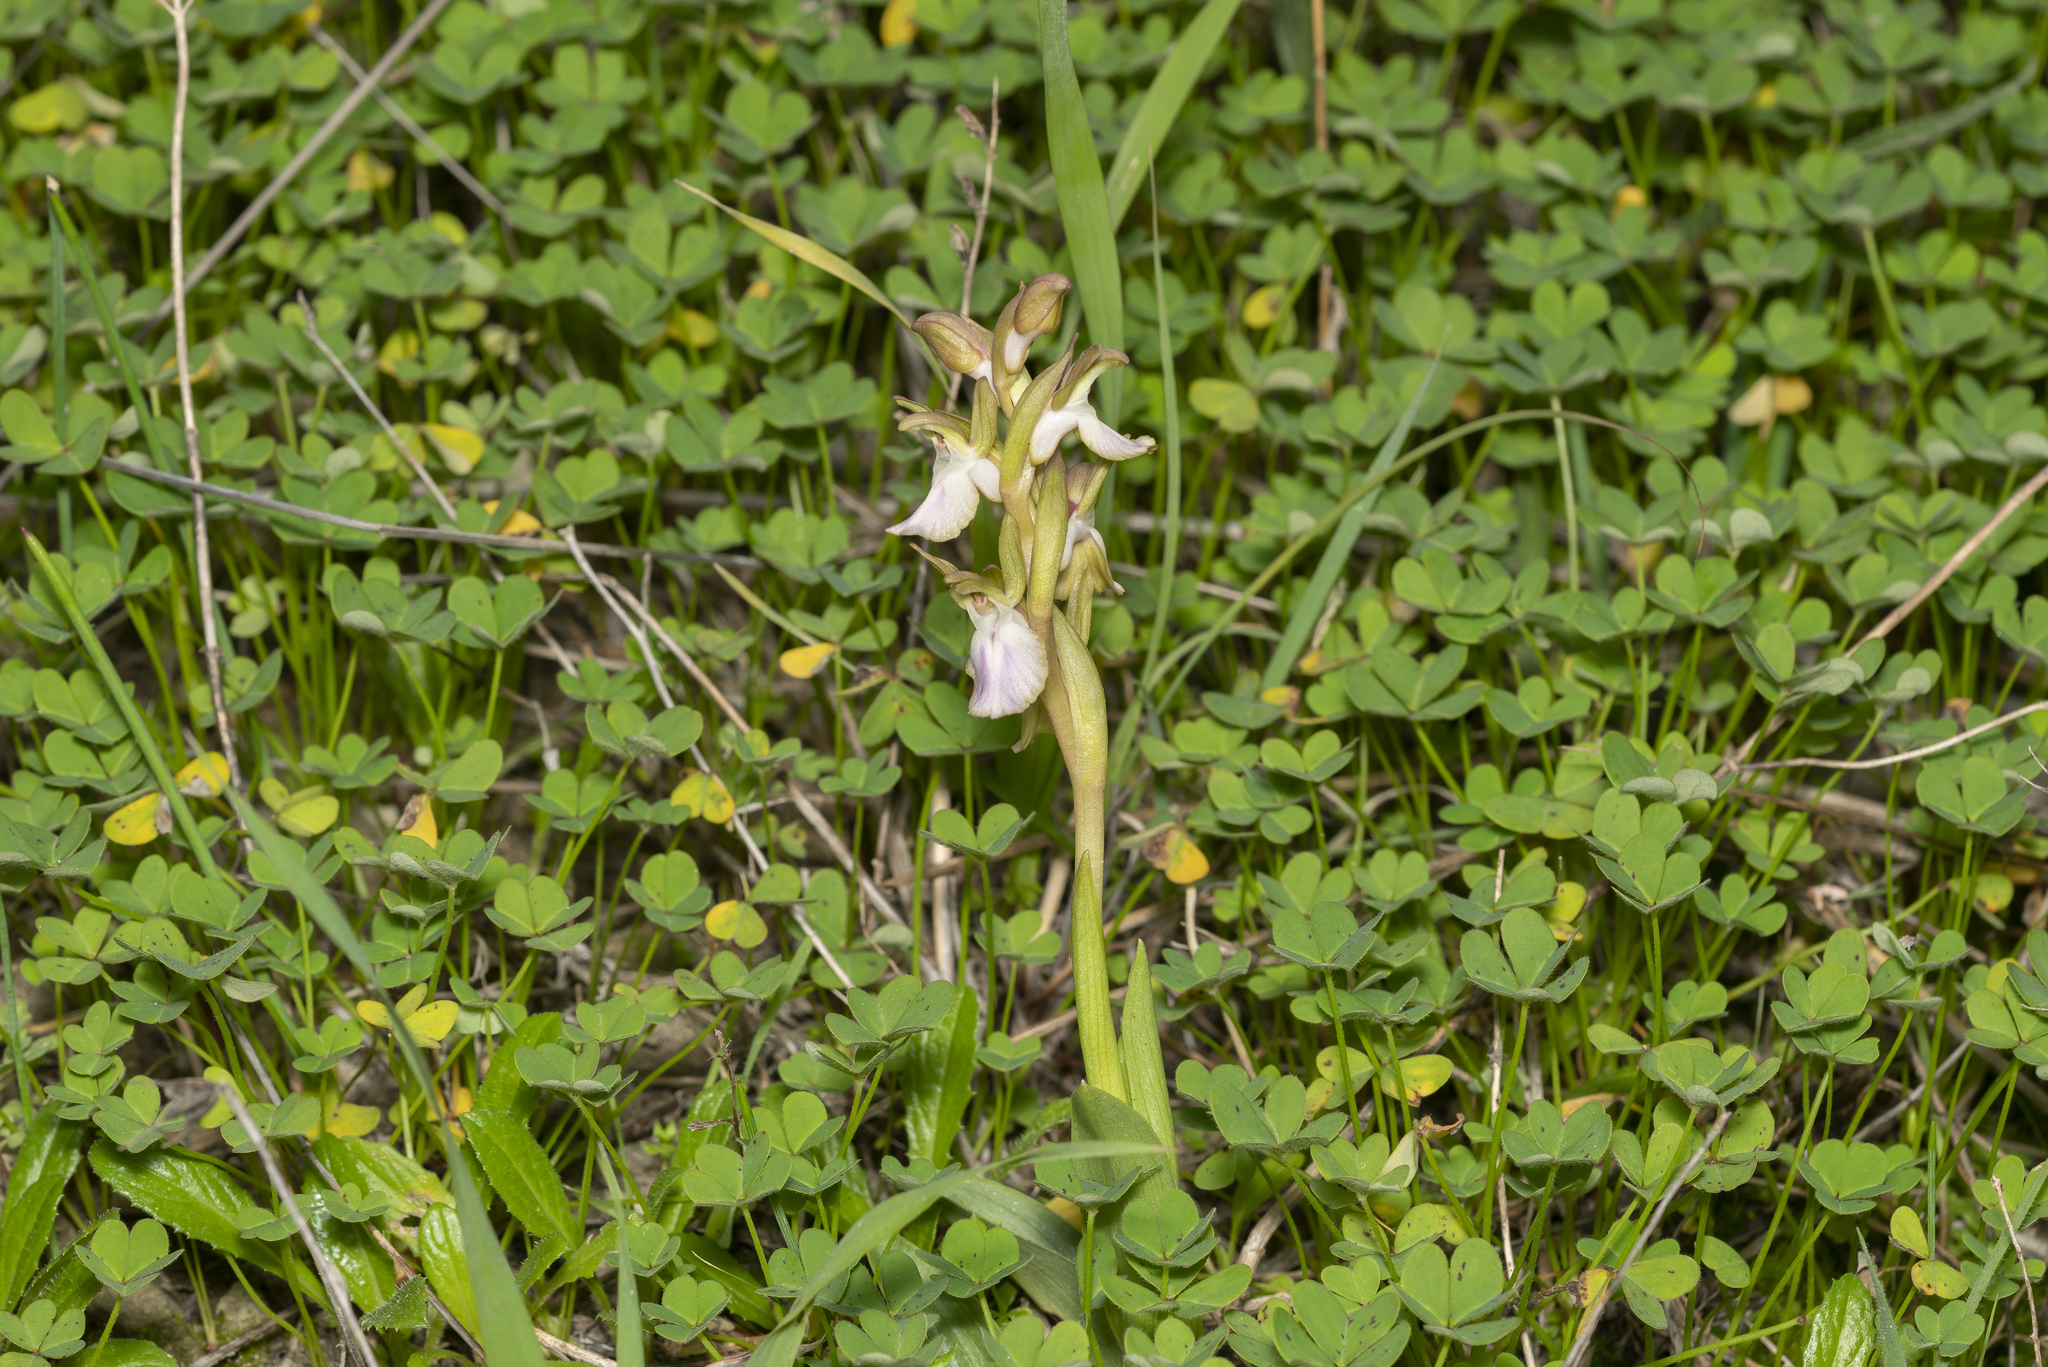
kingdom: Plantae
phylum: Tracheophyta
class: Liliopsida
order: Asparagales
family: Orchidaceae
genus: Anacamptis
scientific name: Anacamptis collina
